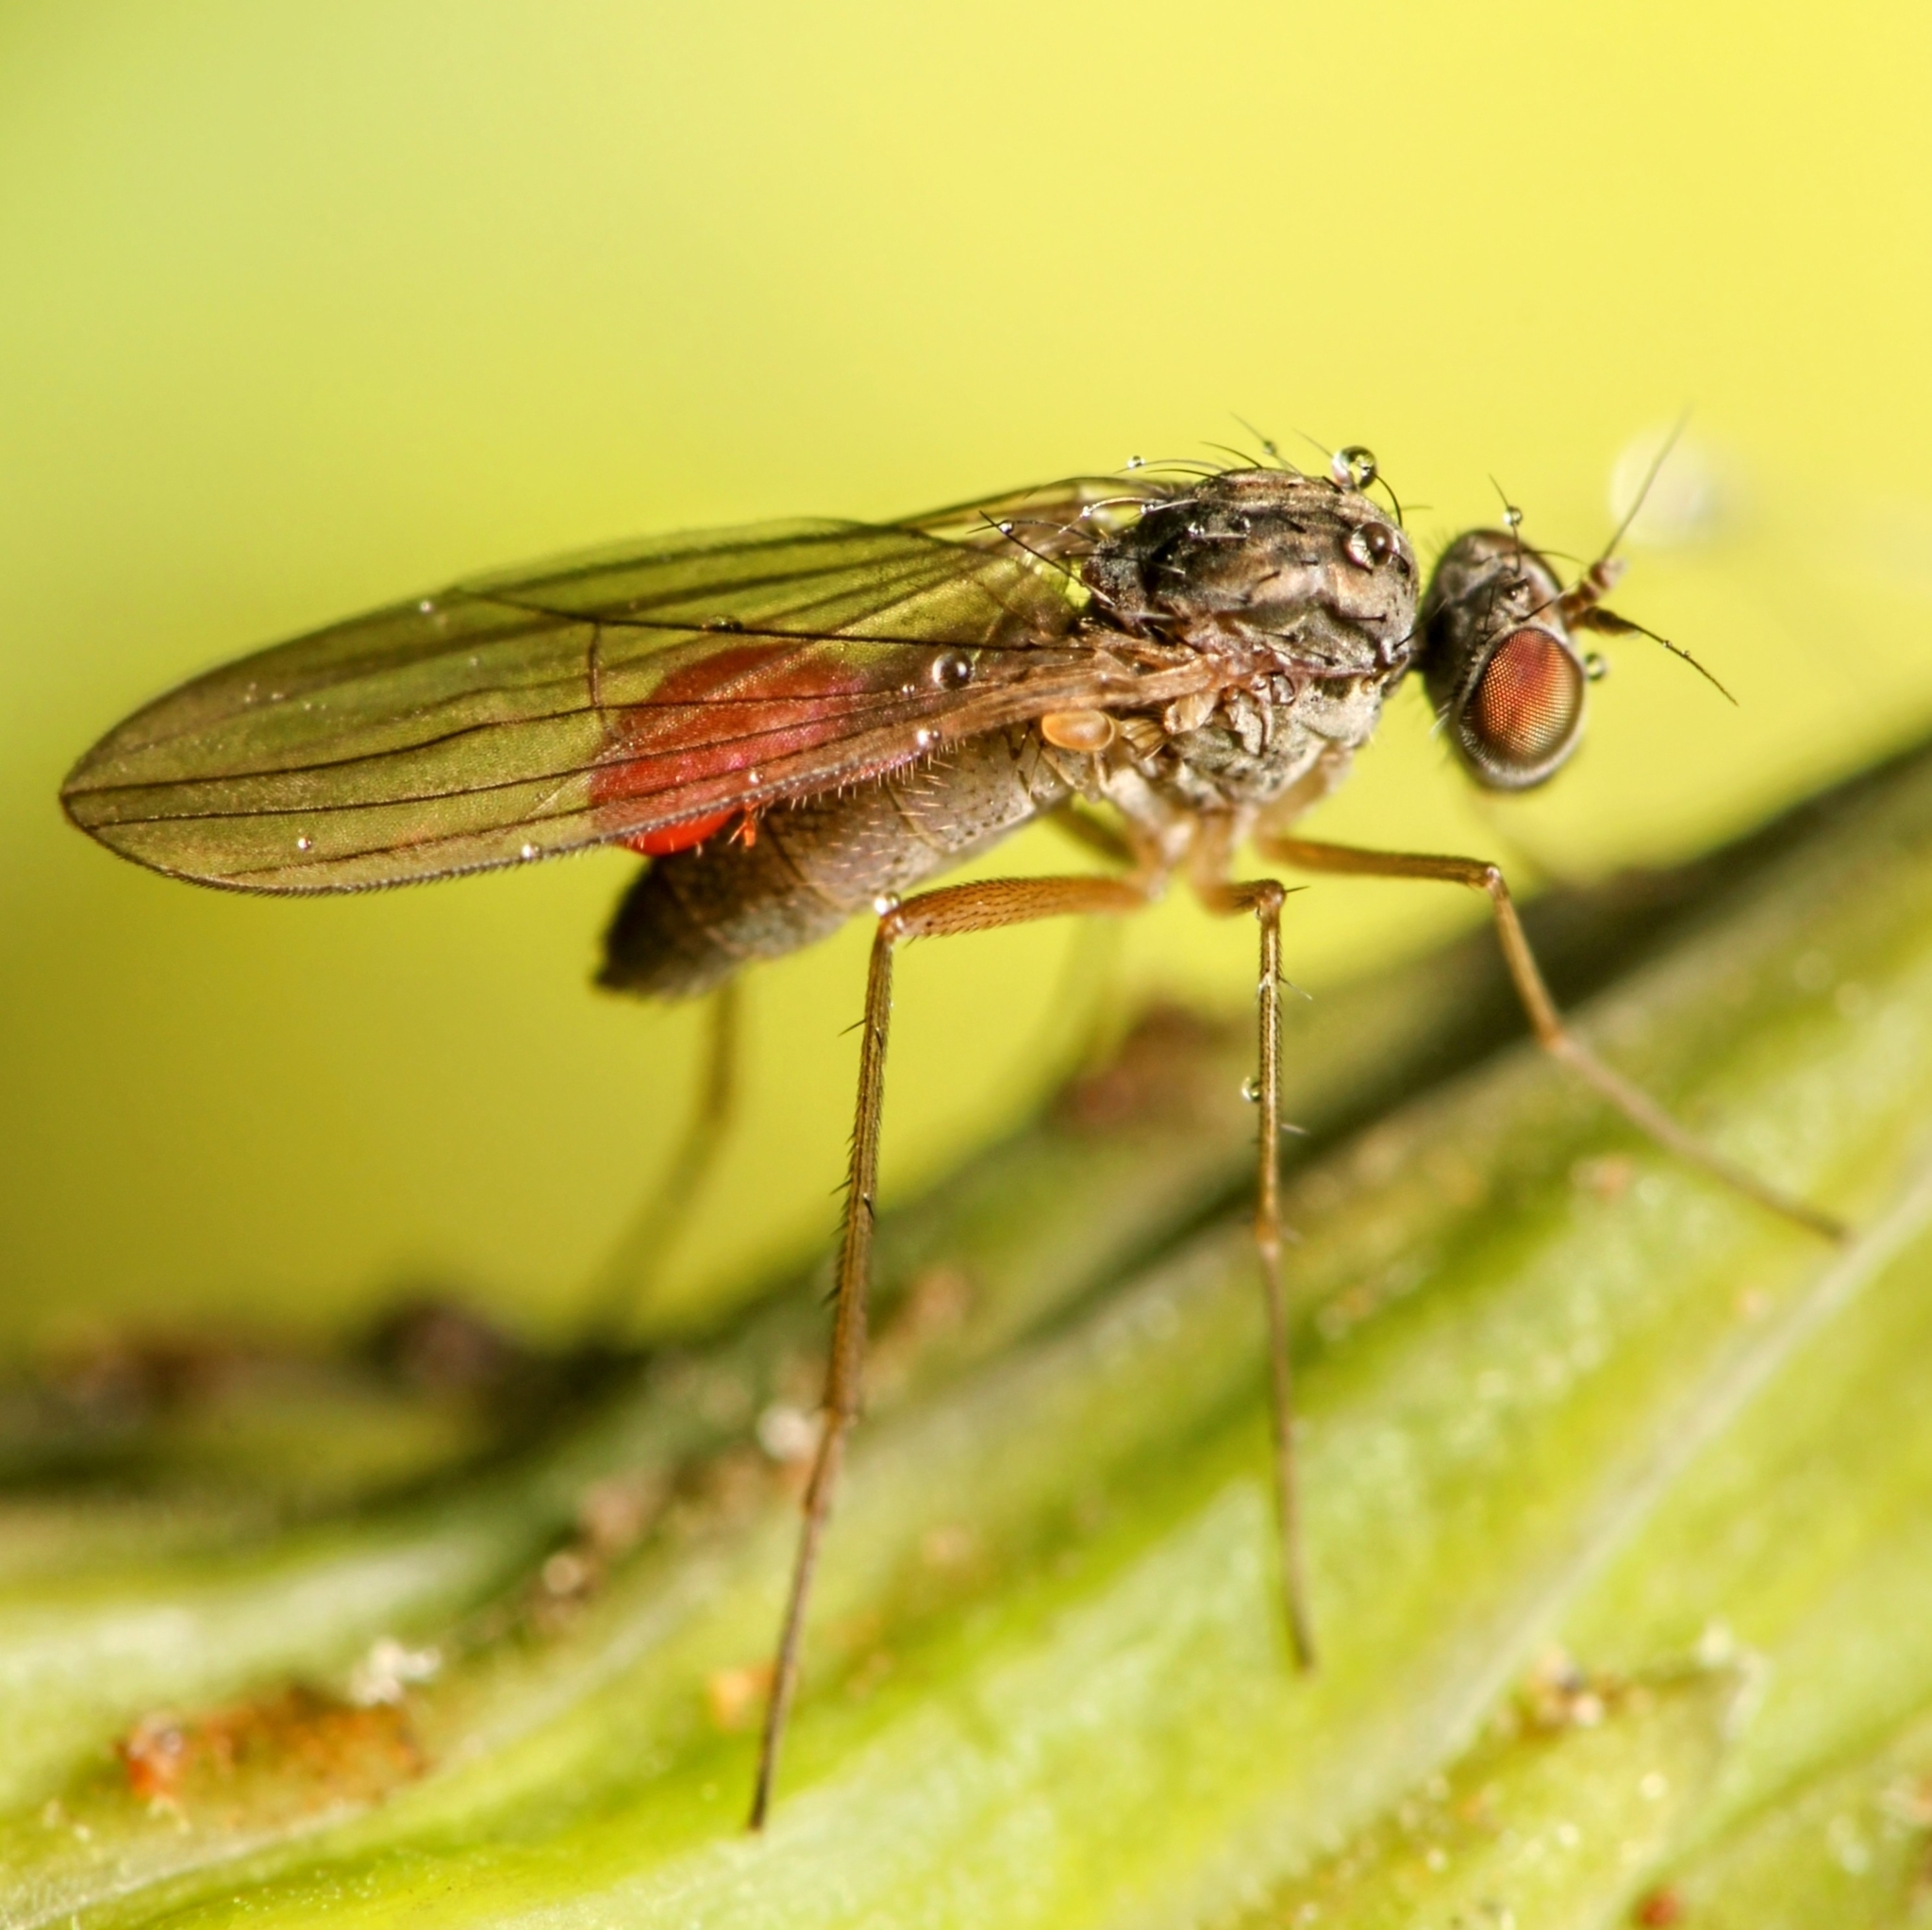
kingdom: Animalia
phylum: Arthropoda
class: Insecta
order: Diptera
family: Dolichopodidae
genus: Sympycnus
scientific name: Sympycnus lineatus
